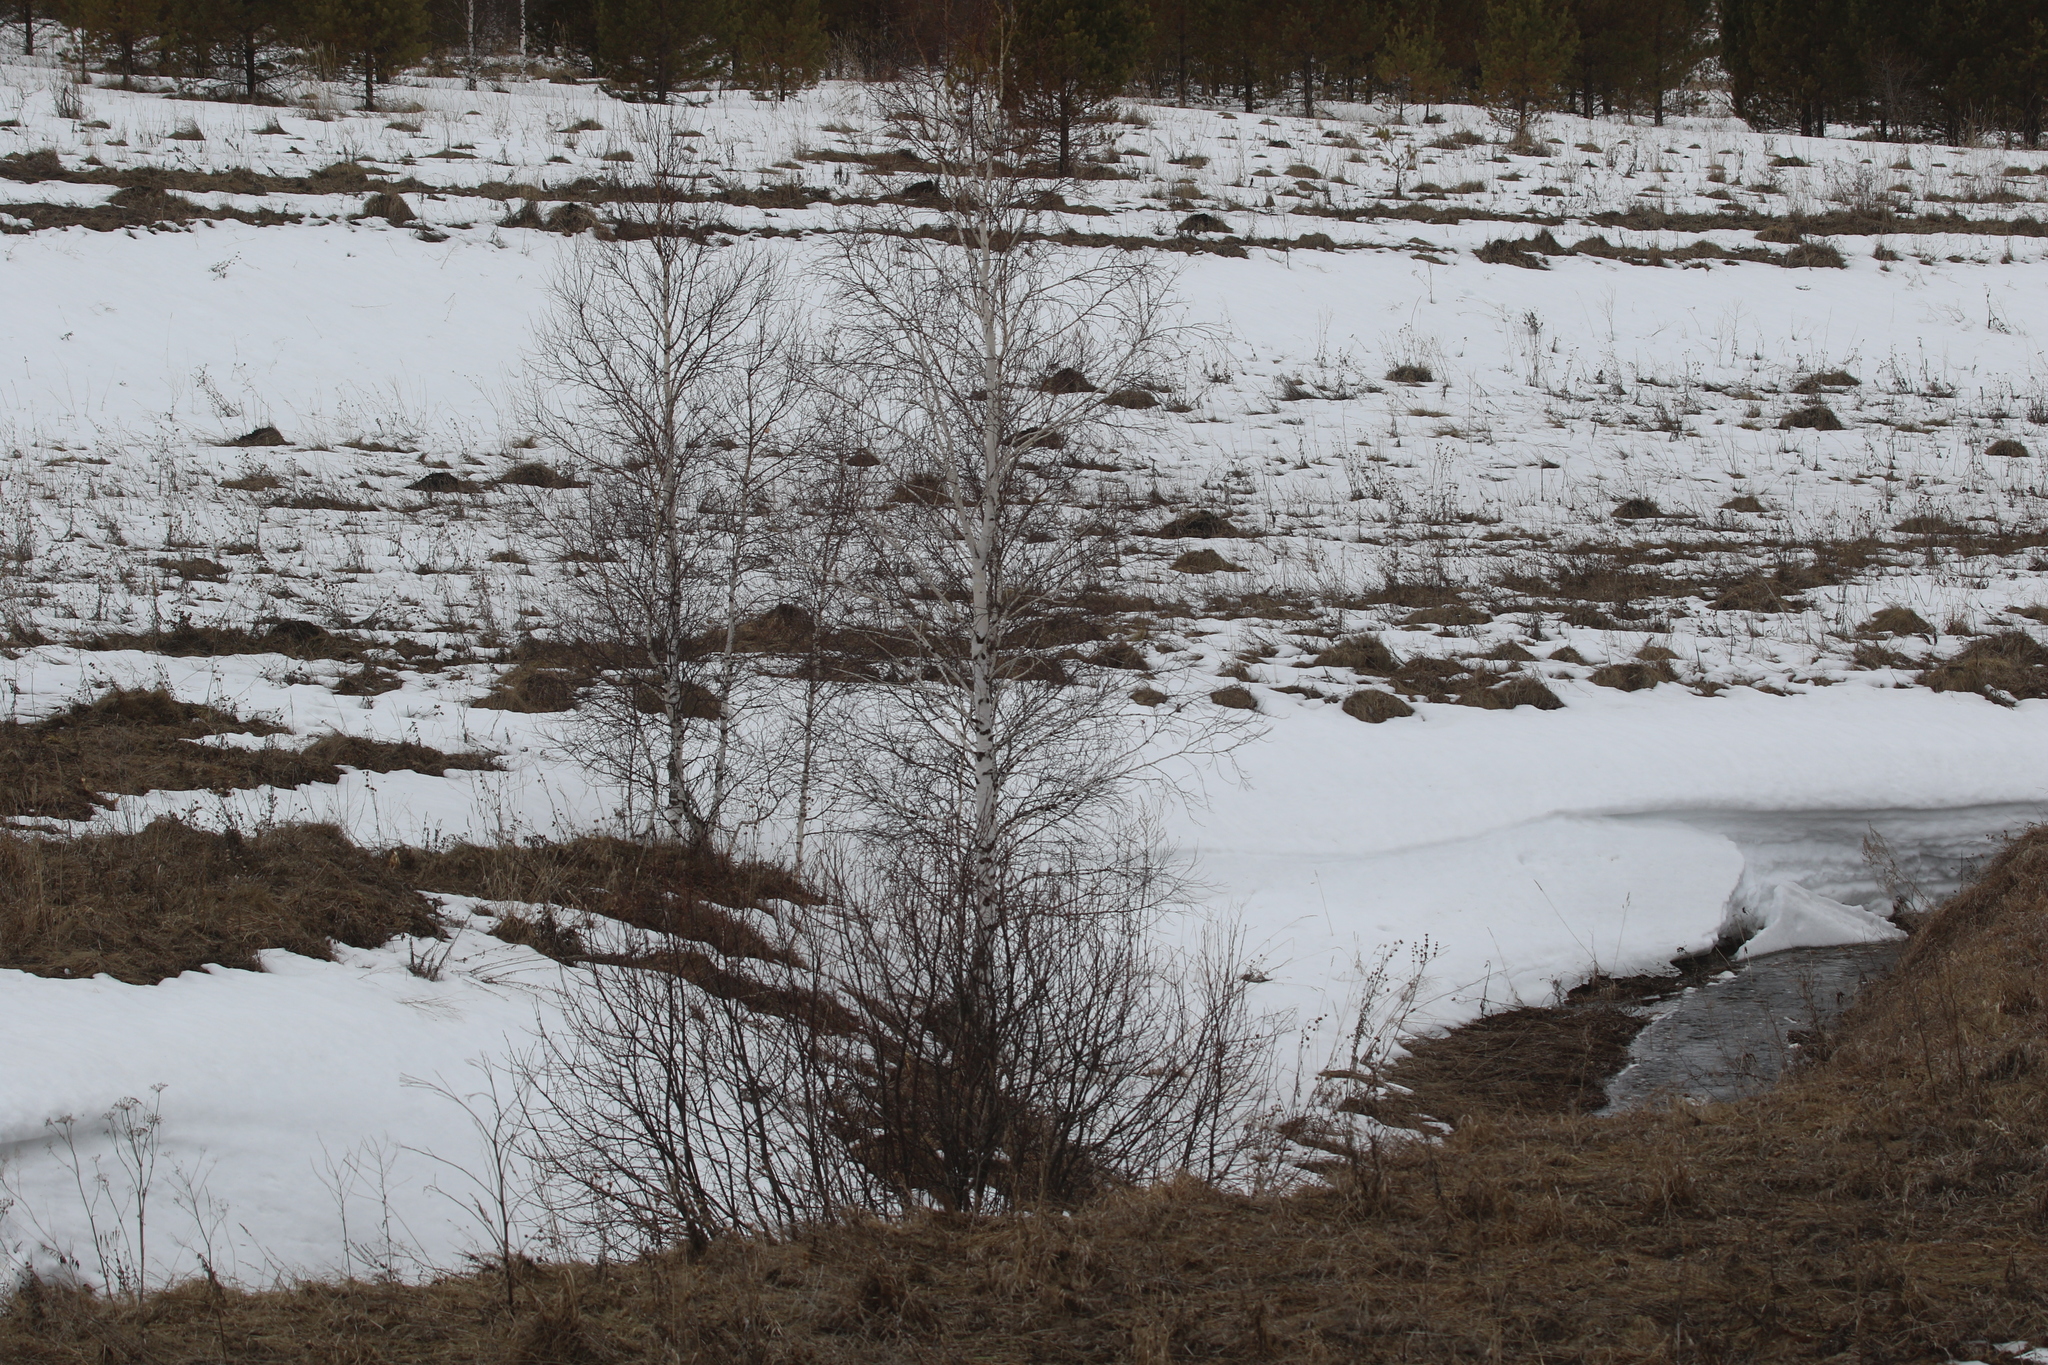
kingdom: Plantae
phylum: Tracheophyta
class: Magnoliopsida
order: Fagales
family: Betulaceae
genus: Betula
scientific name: Betula pendula
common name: Silver birch
